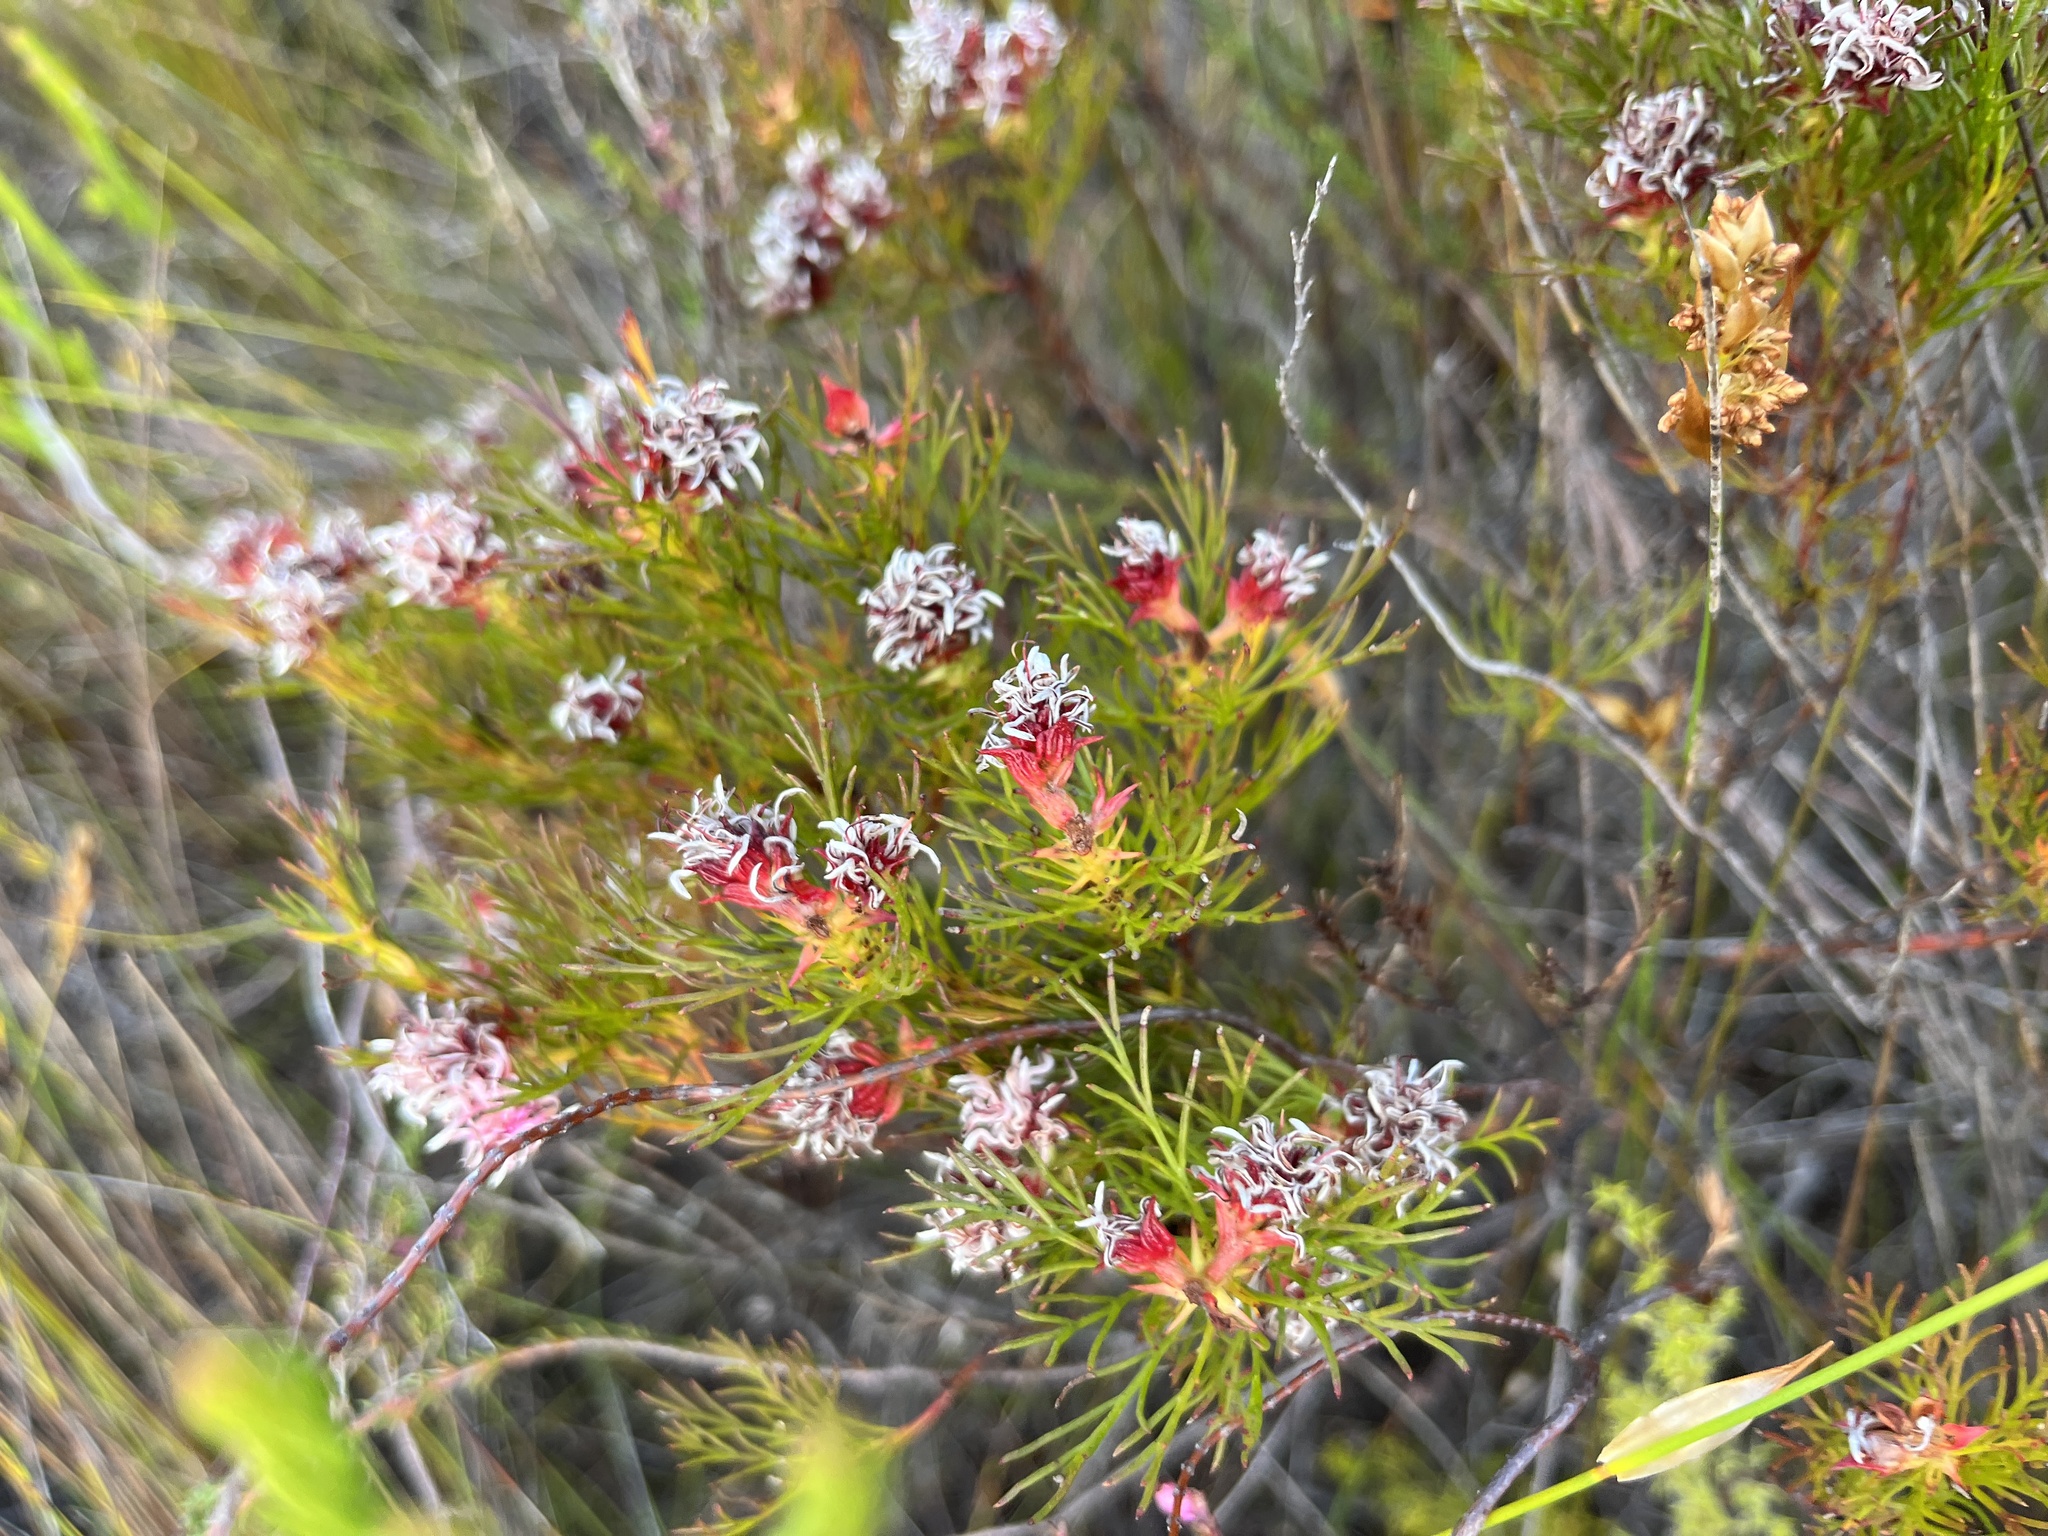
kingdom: Plantae
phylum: Tracheophyta
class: Magnoliopsida
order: Proteales
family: Proteaceae
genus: Serruria
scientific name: Serruria nervosa
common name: Fluted spiderhead
